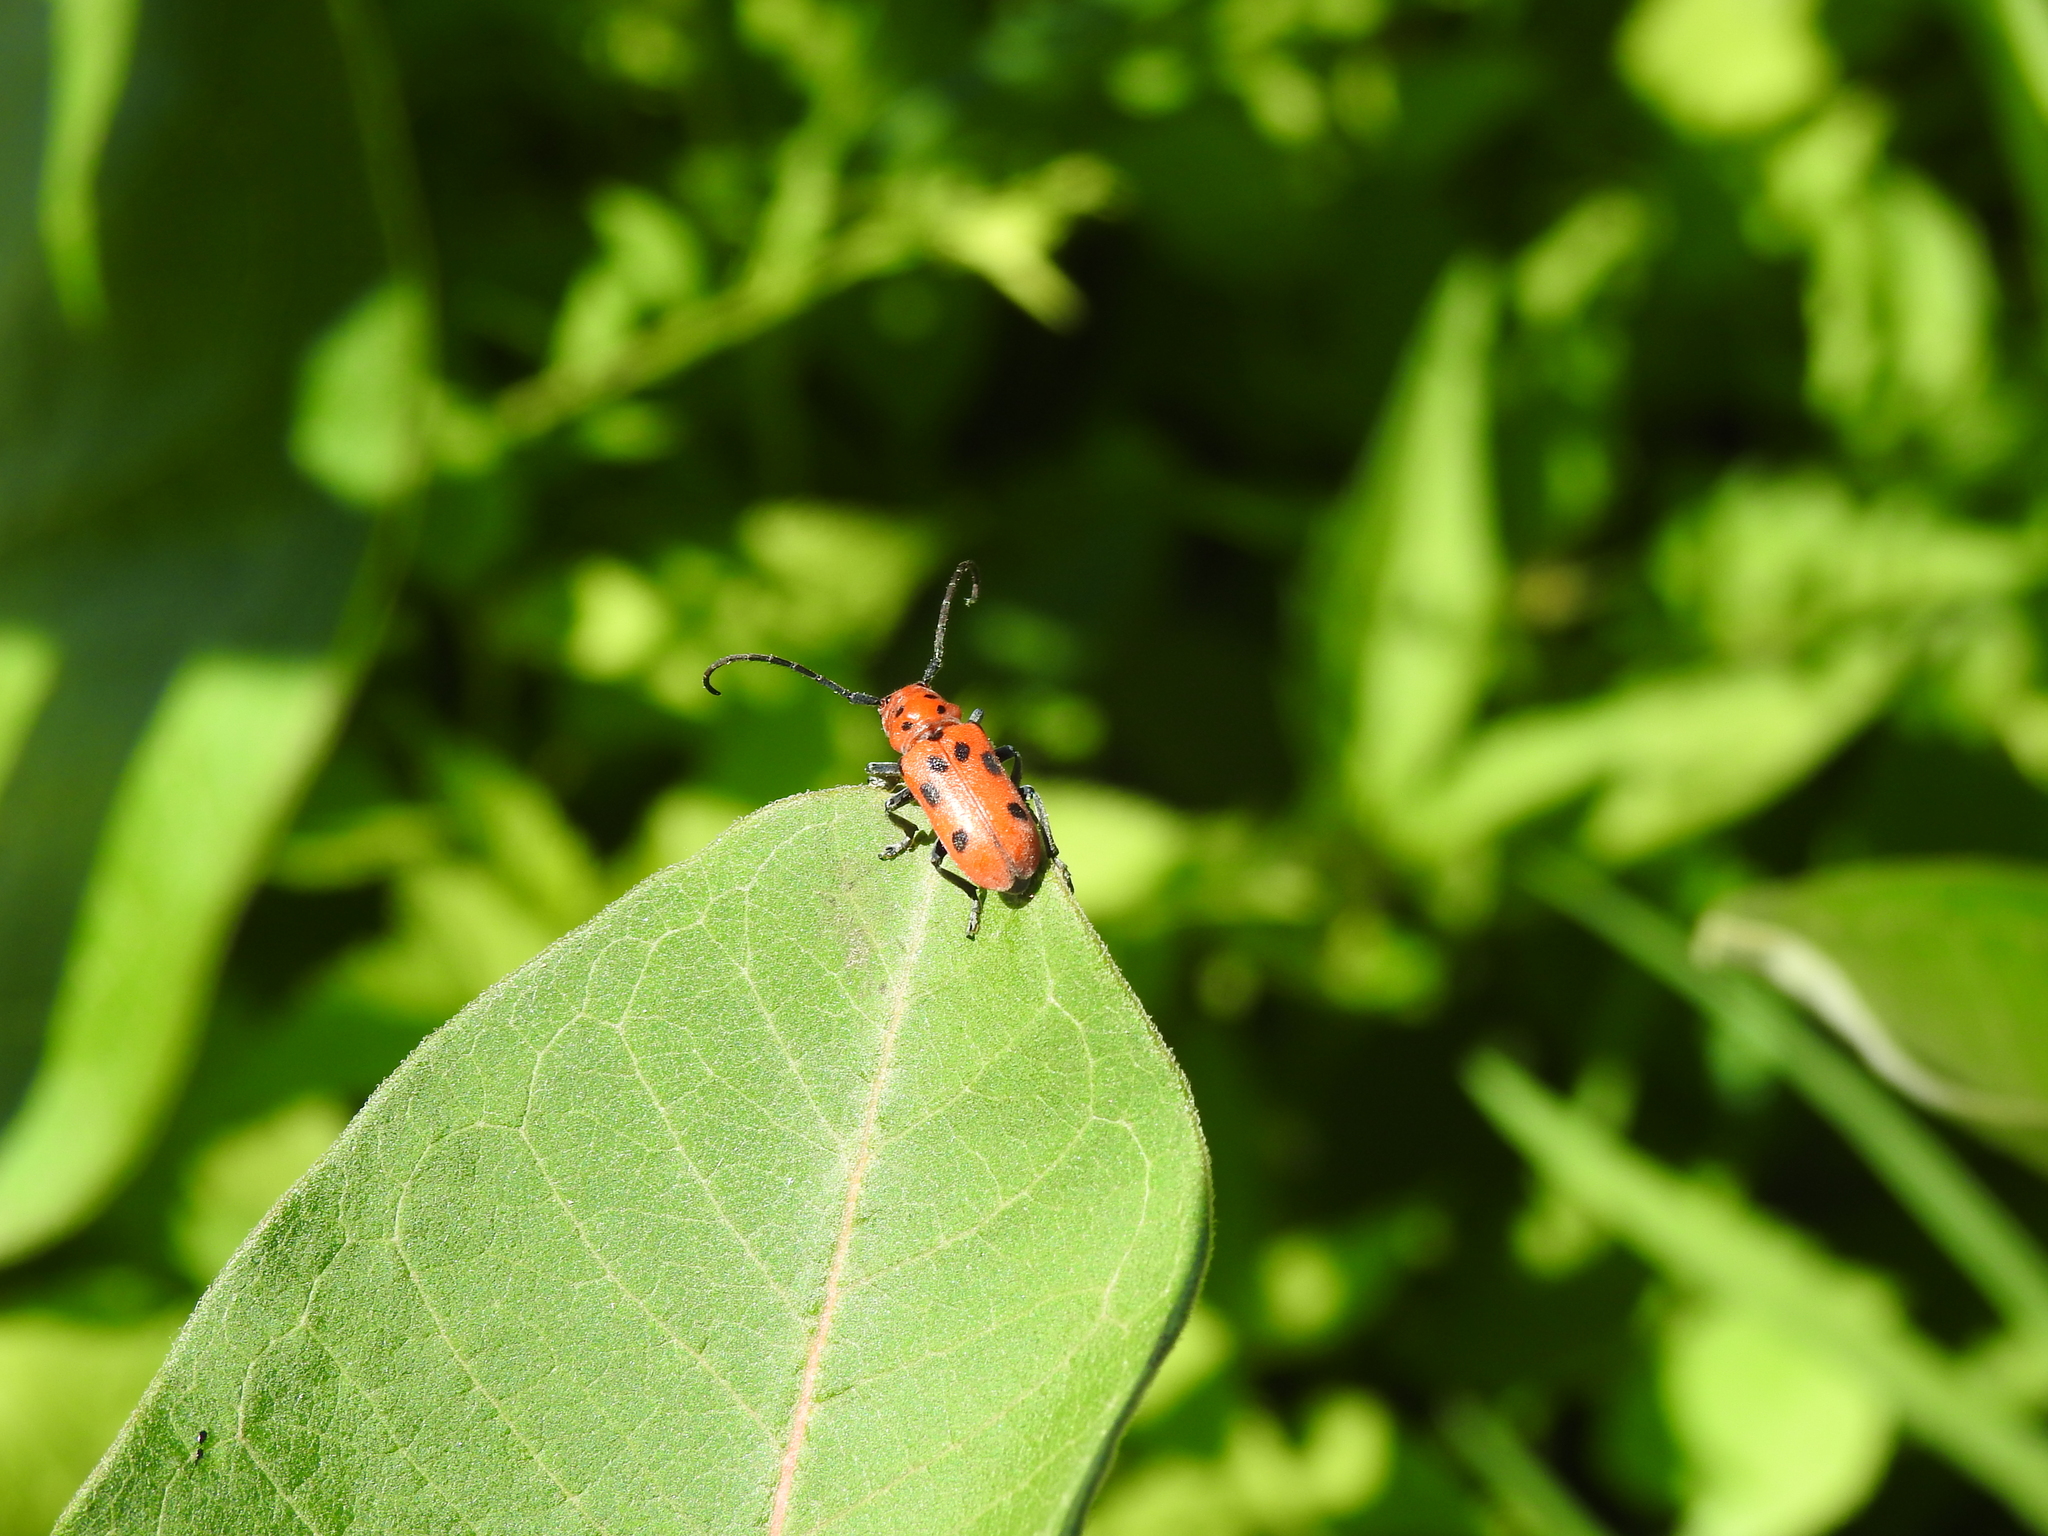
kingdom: Animalia
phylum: Arthropoda
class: Insecta
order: Coleoptera
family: Cerambycidae
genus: Tetraopes
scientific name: Tetraopes tetrophthalmus
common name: Red milkweed beetle
